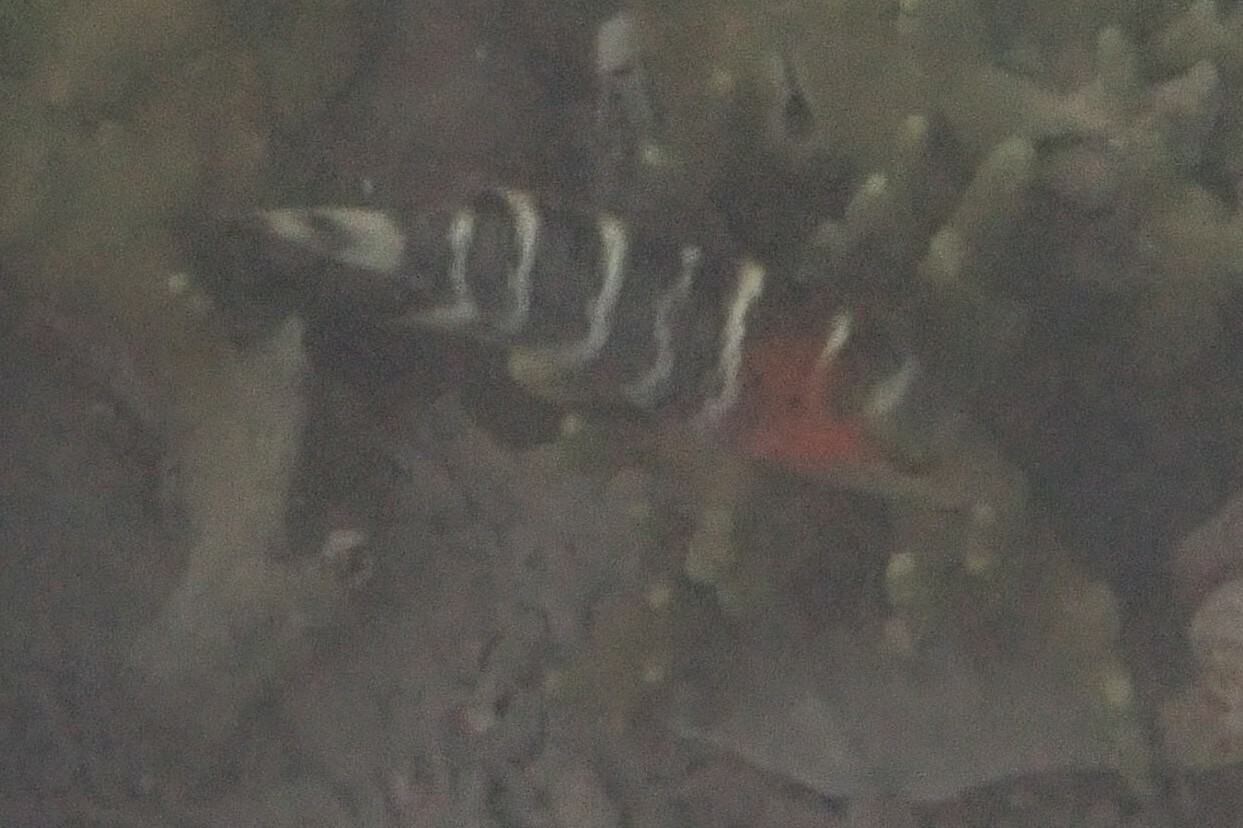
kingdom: Animalia
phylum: Chordata
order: Perciformes
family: Labridae
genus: Cheilinus
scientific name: Cheilinus fasciatus
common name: Red-breasted wrasse
